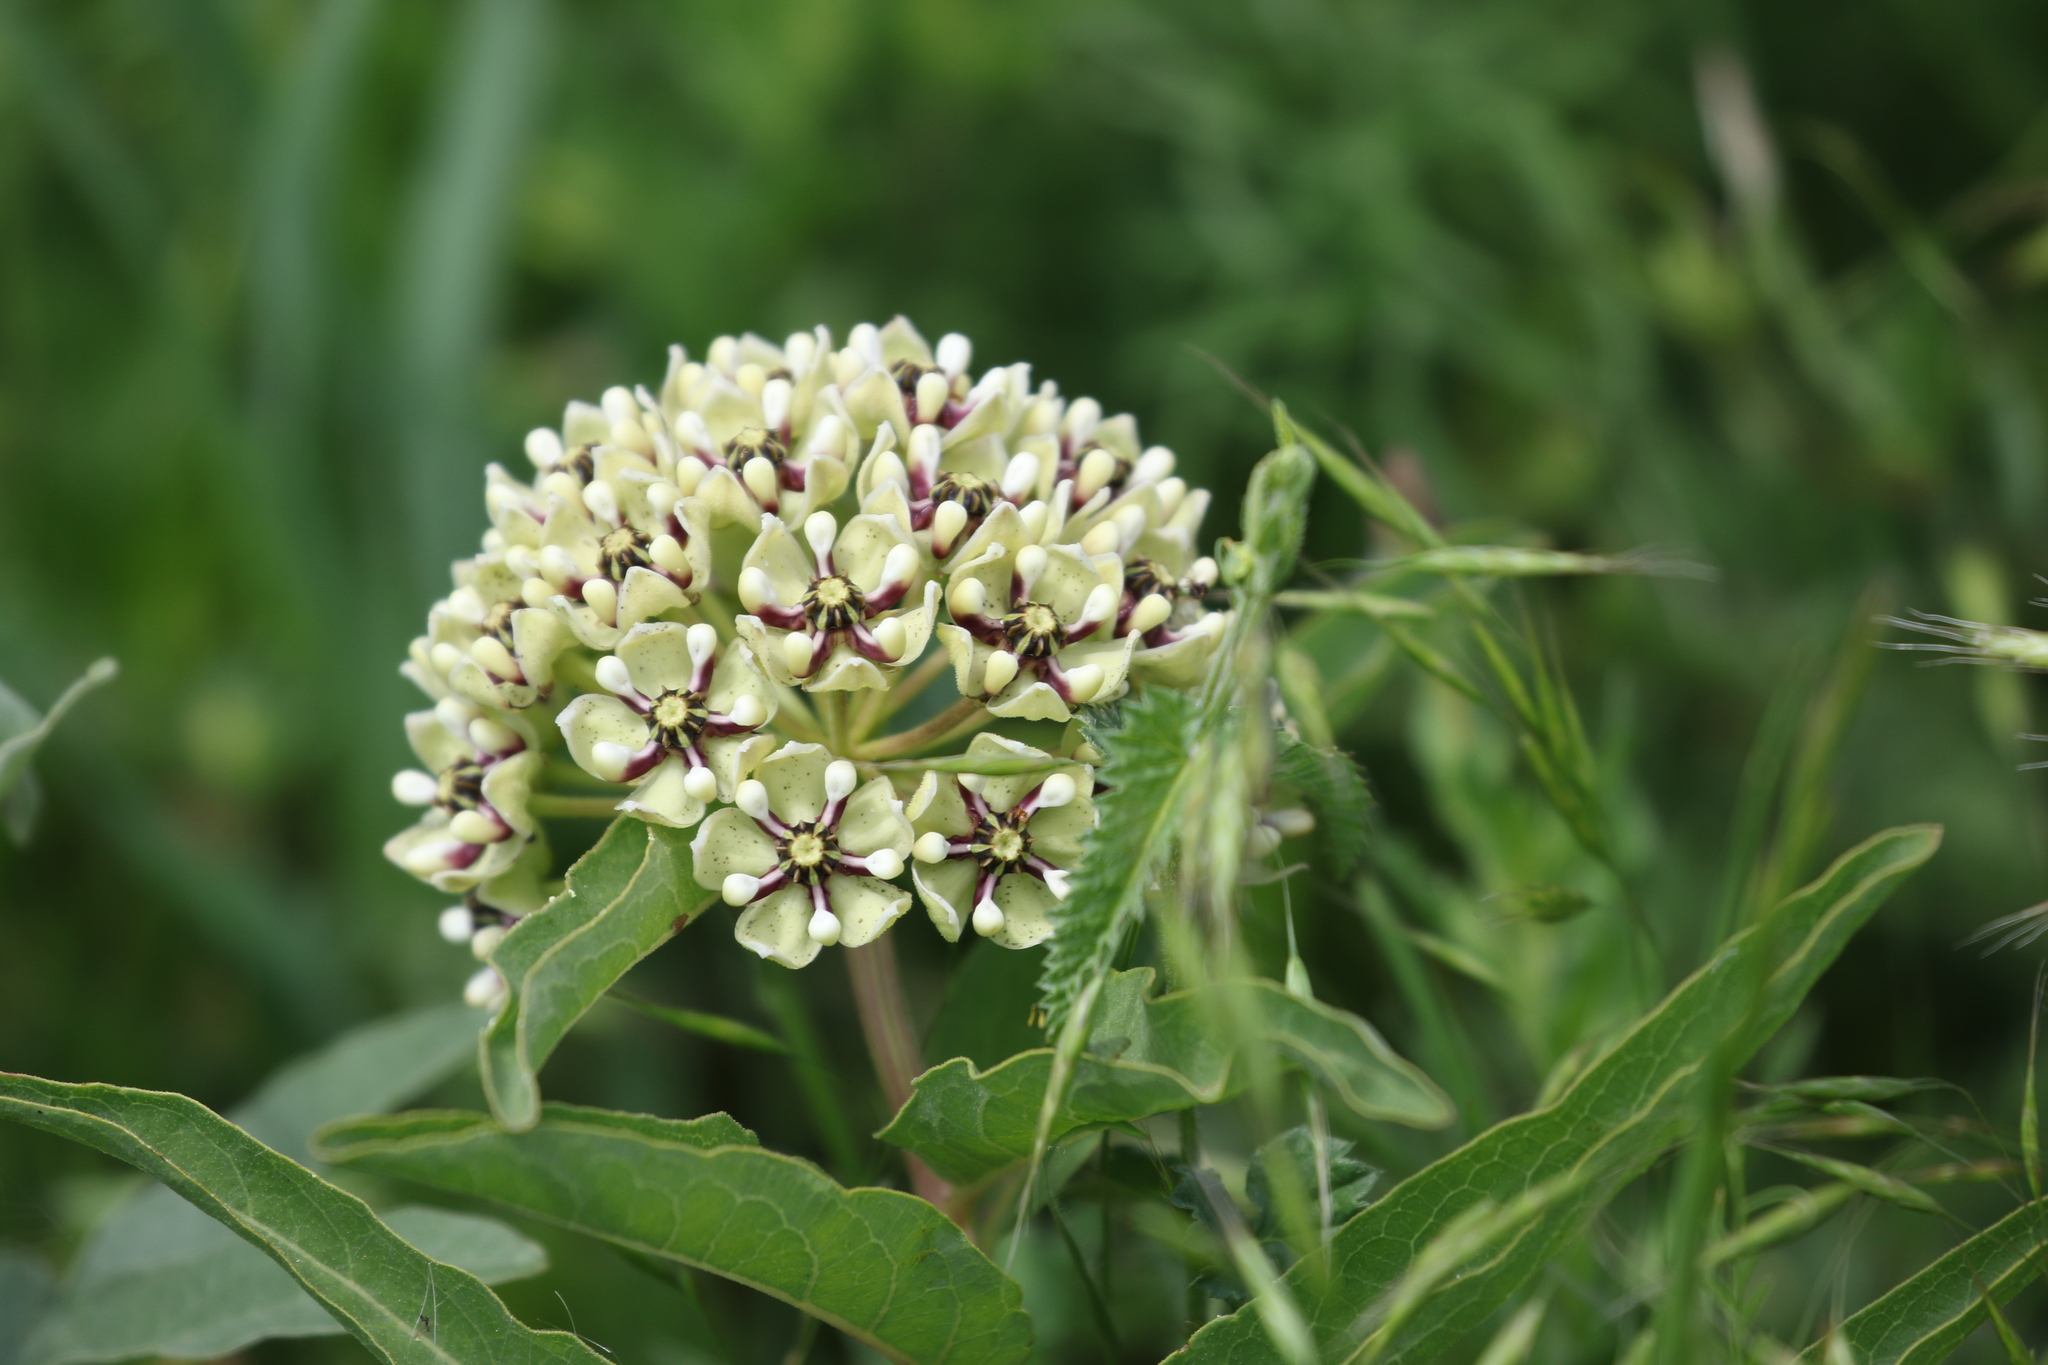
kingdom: Plantae
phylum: Tracheophyta
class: Magnoliopsida
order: Gentianales
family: Apocynaceae
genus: Asclepias
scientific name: Asclepias asperula
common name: Antelope horns
